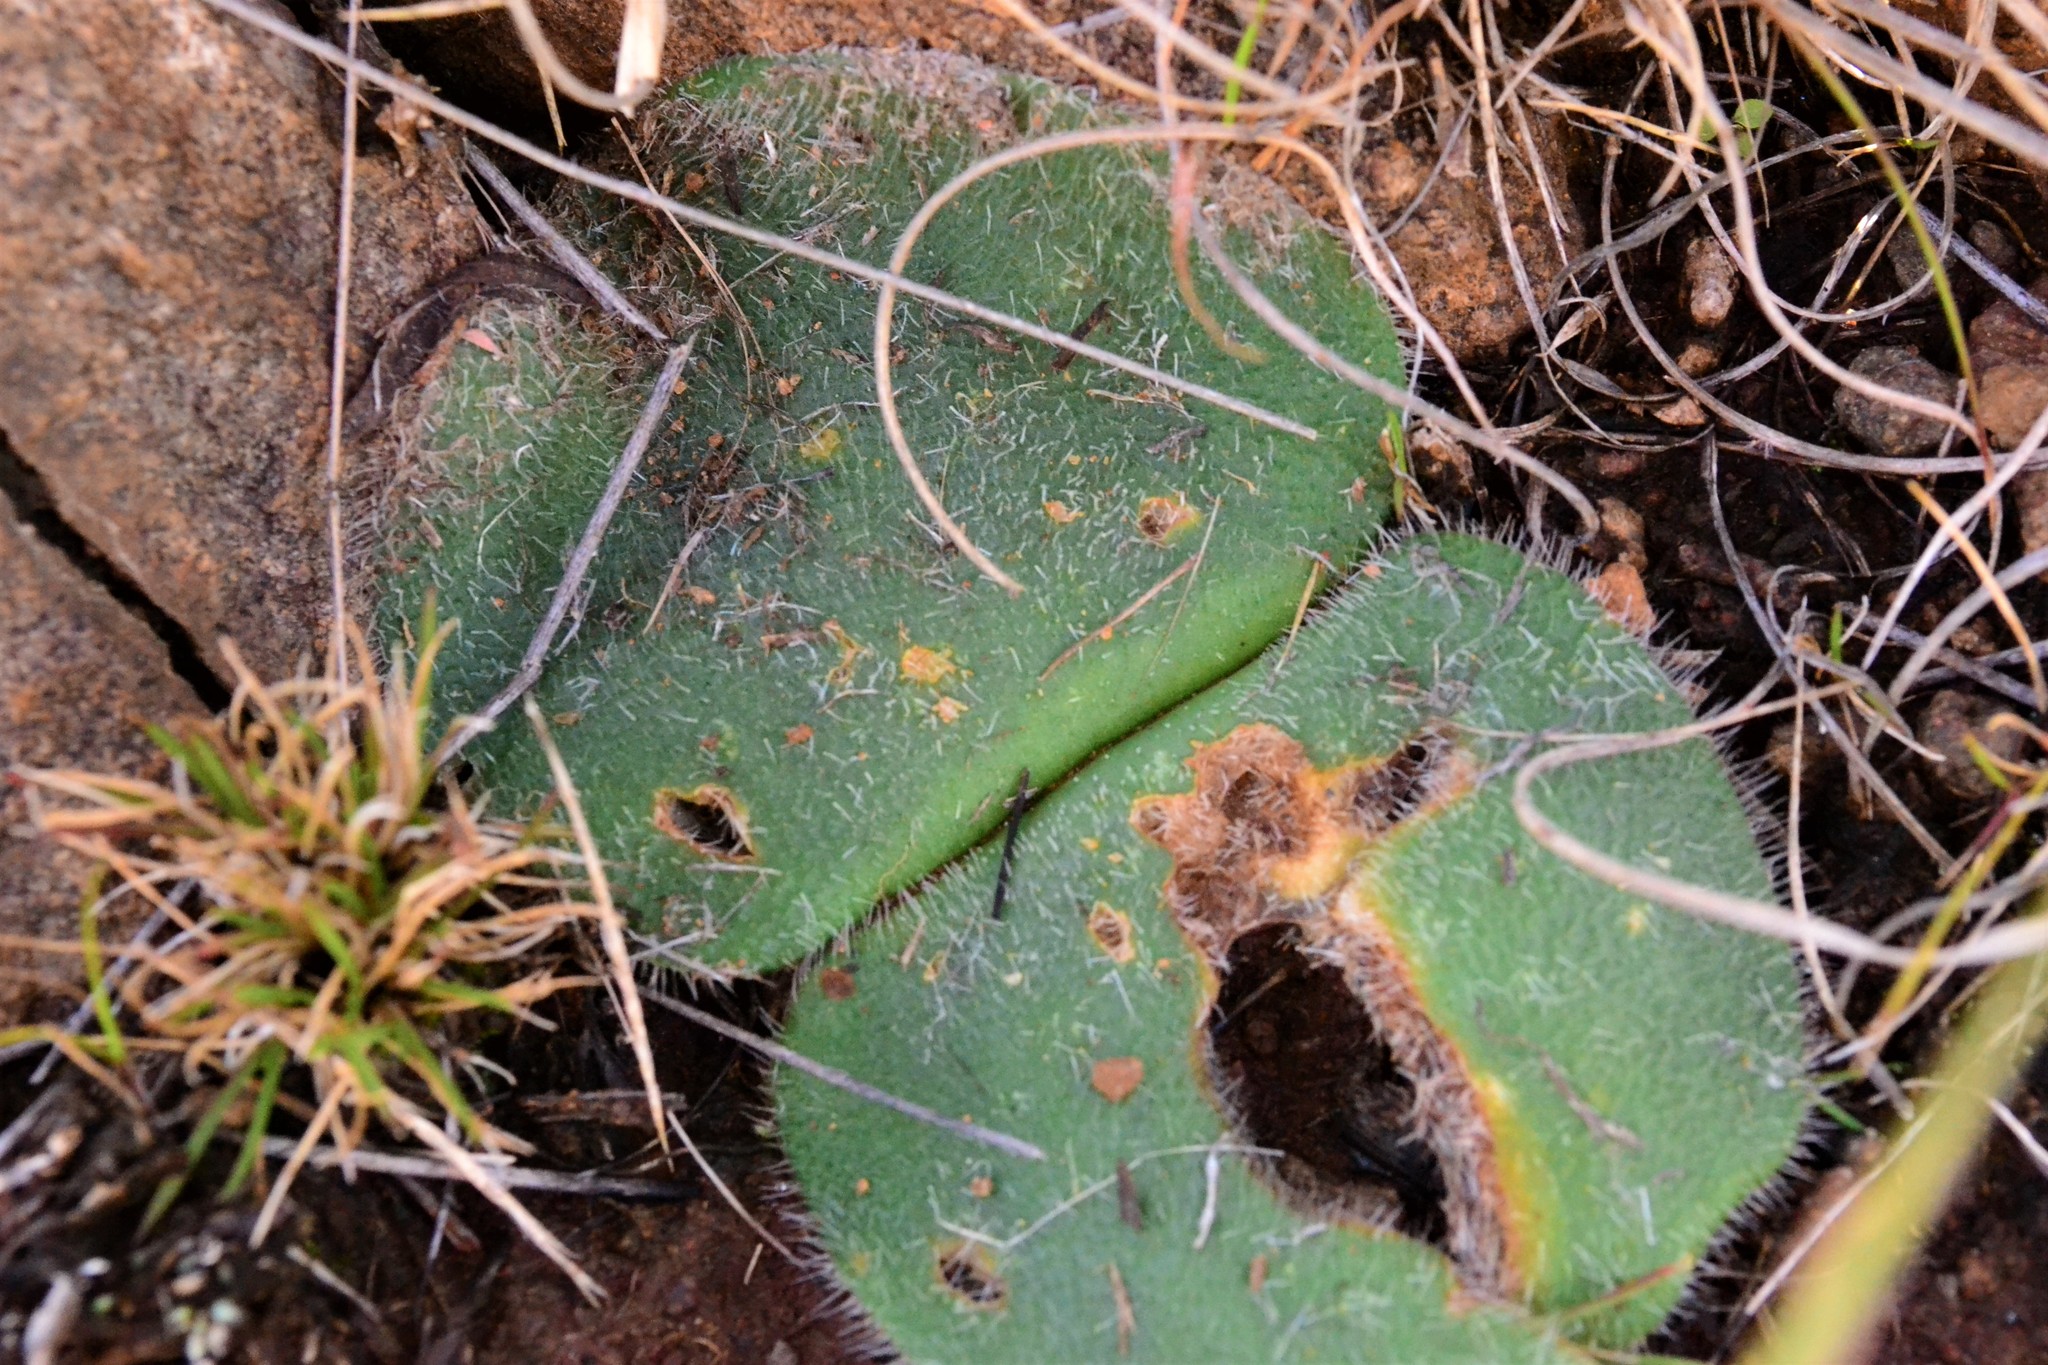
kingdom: Plantae
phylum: Tracheophyta
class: Liliopsida
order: Asparagales
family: Amaryllidaceae
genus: Haemanthus
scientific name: Haemanthus humilis
